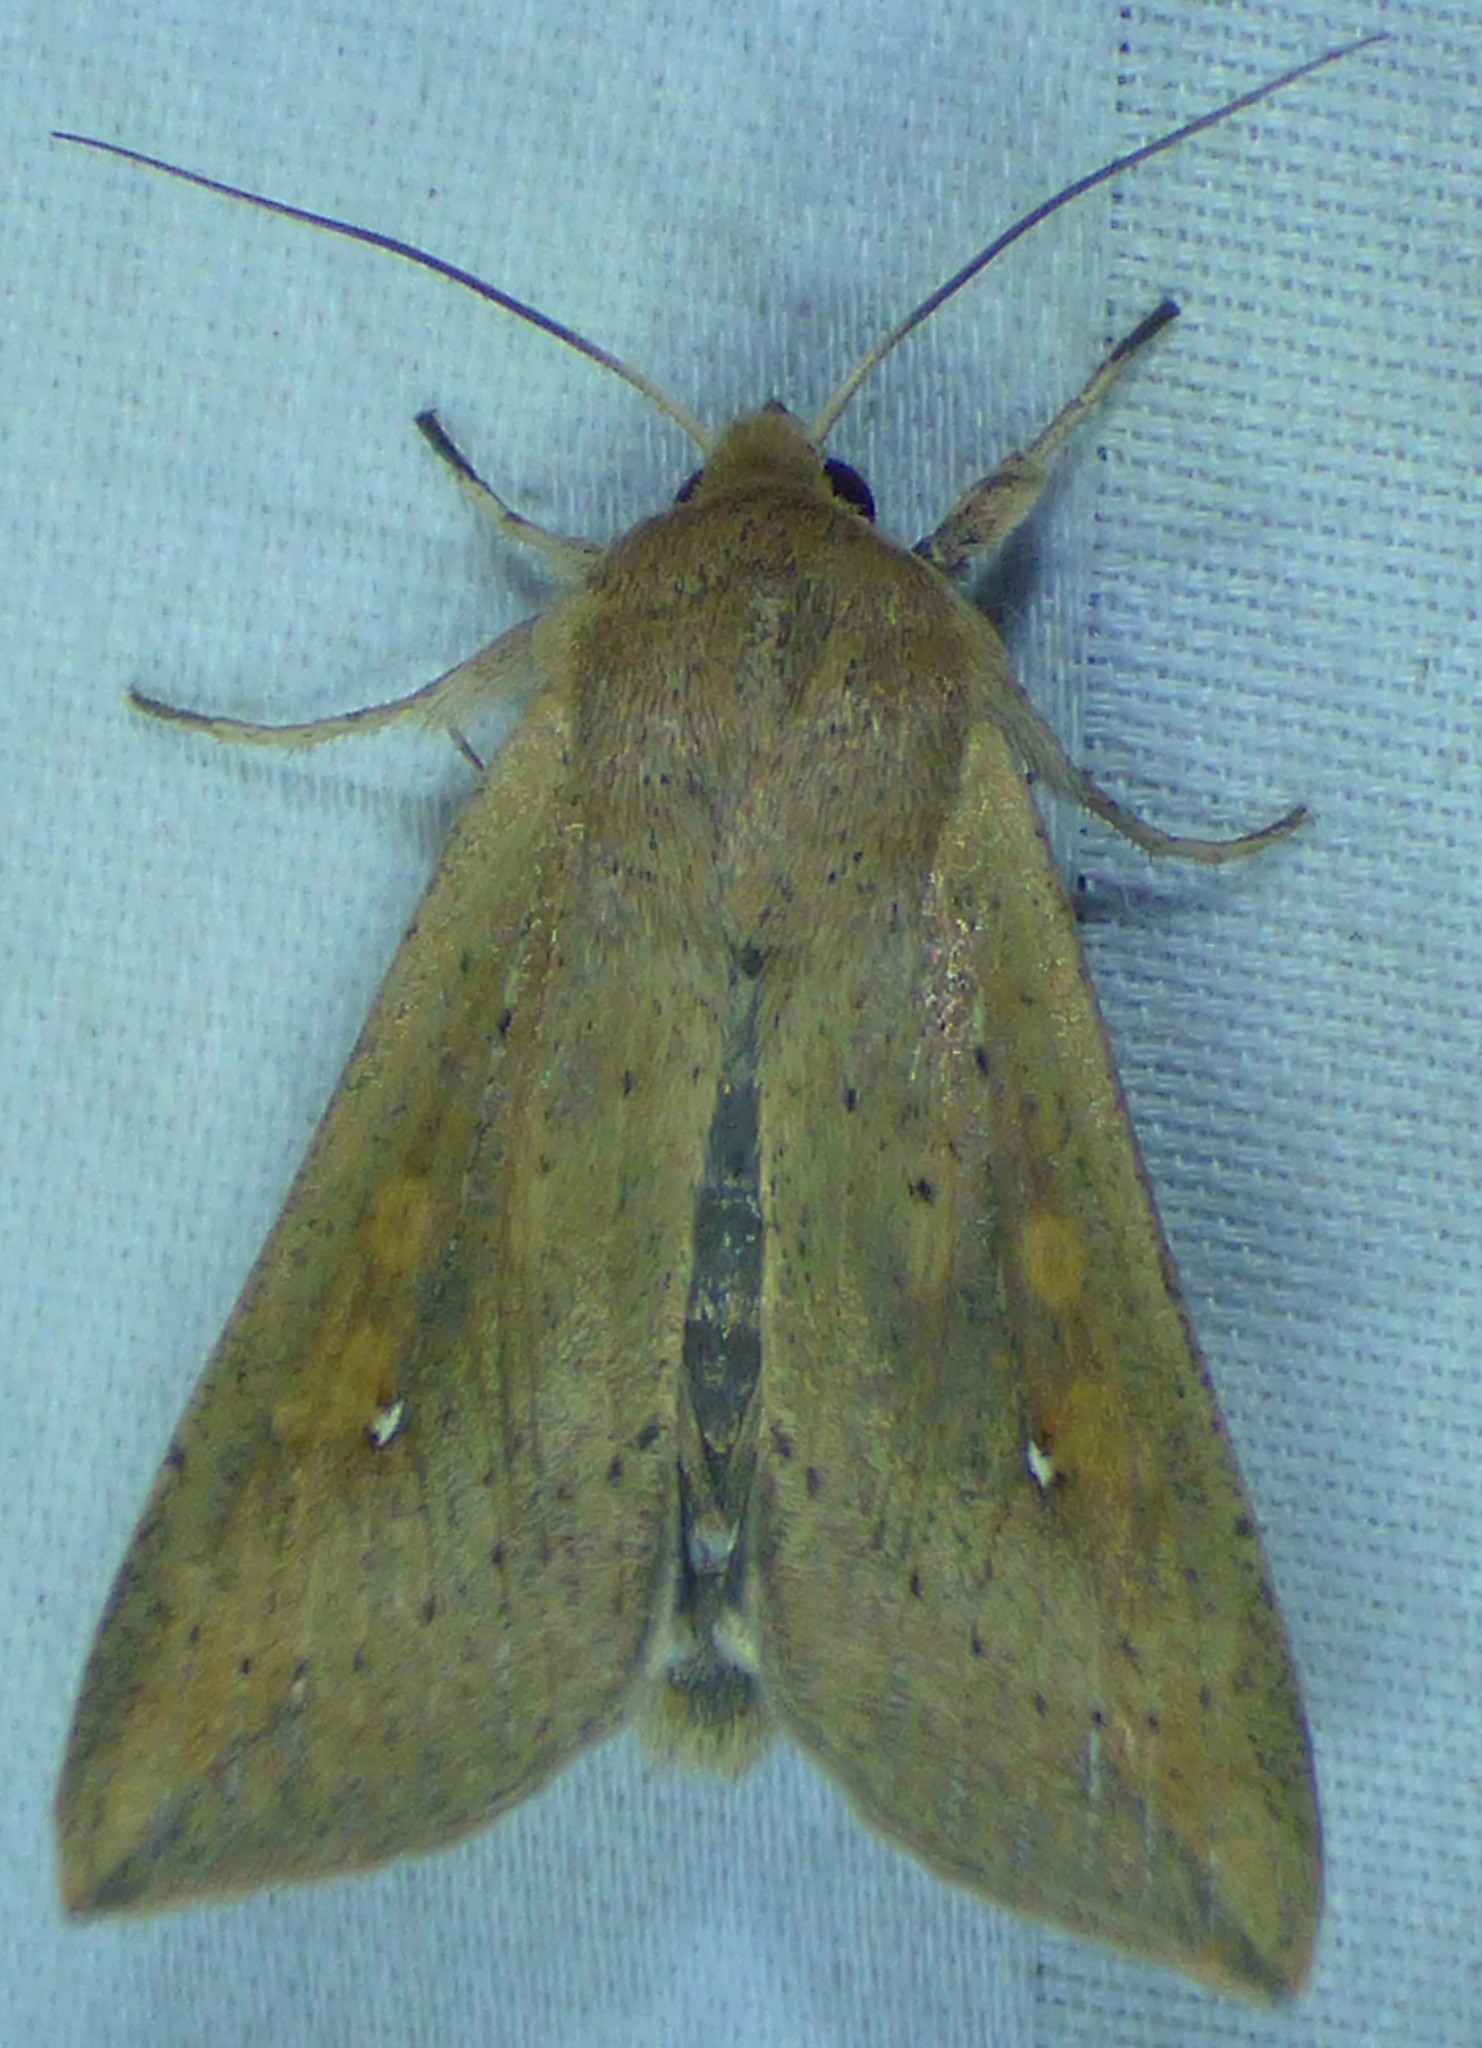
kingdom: Animalia
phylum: Arthropoda
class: Insecta
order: Lepidoptera
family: Noctuidae
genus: Mythimna
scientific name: Mythimna unipuncta
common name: White-speck
